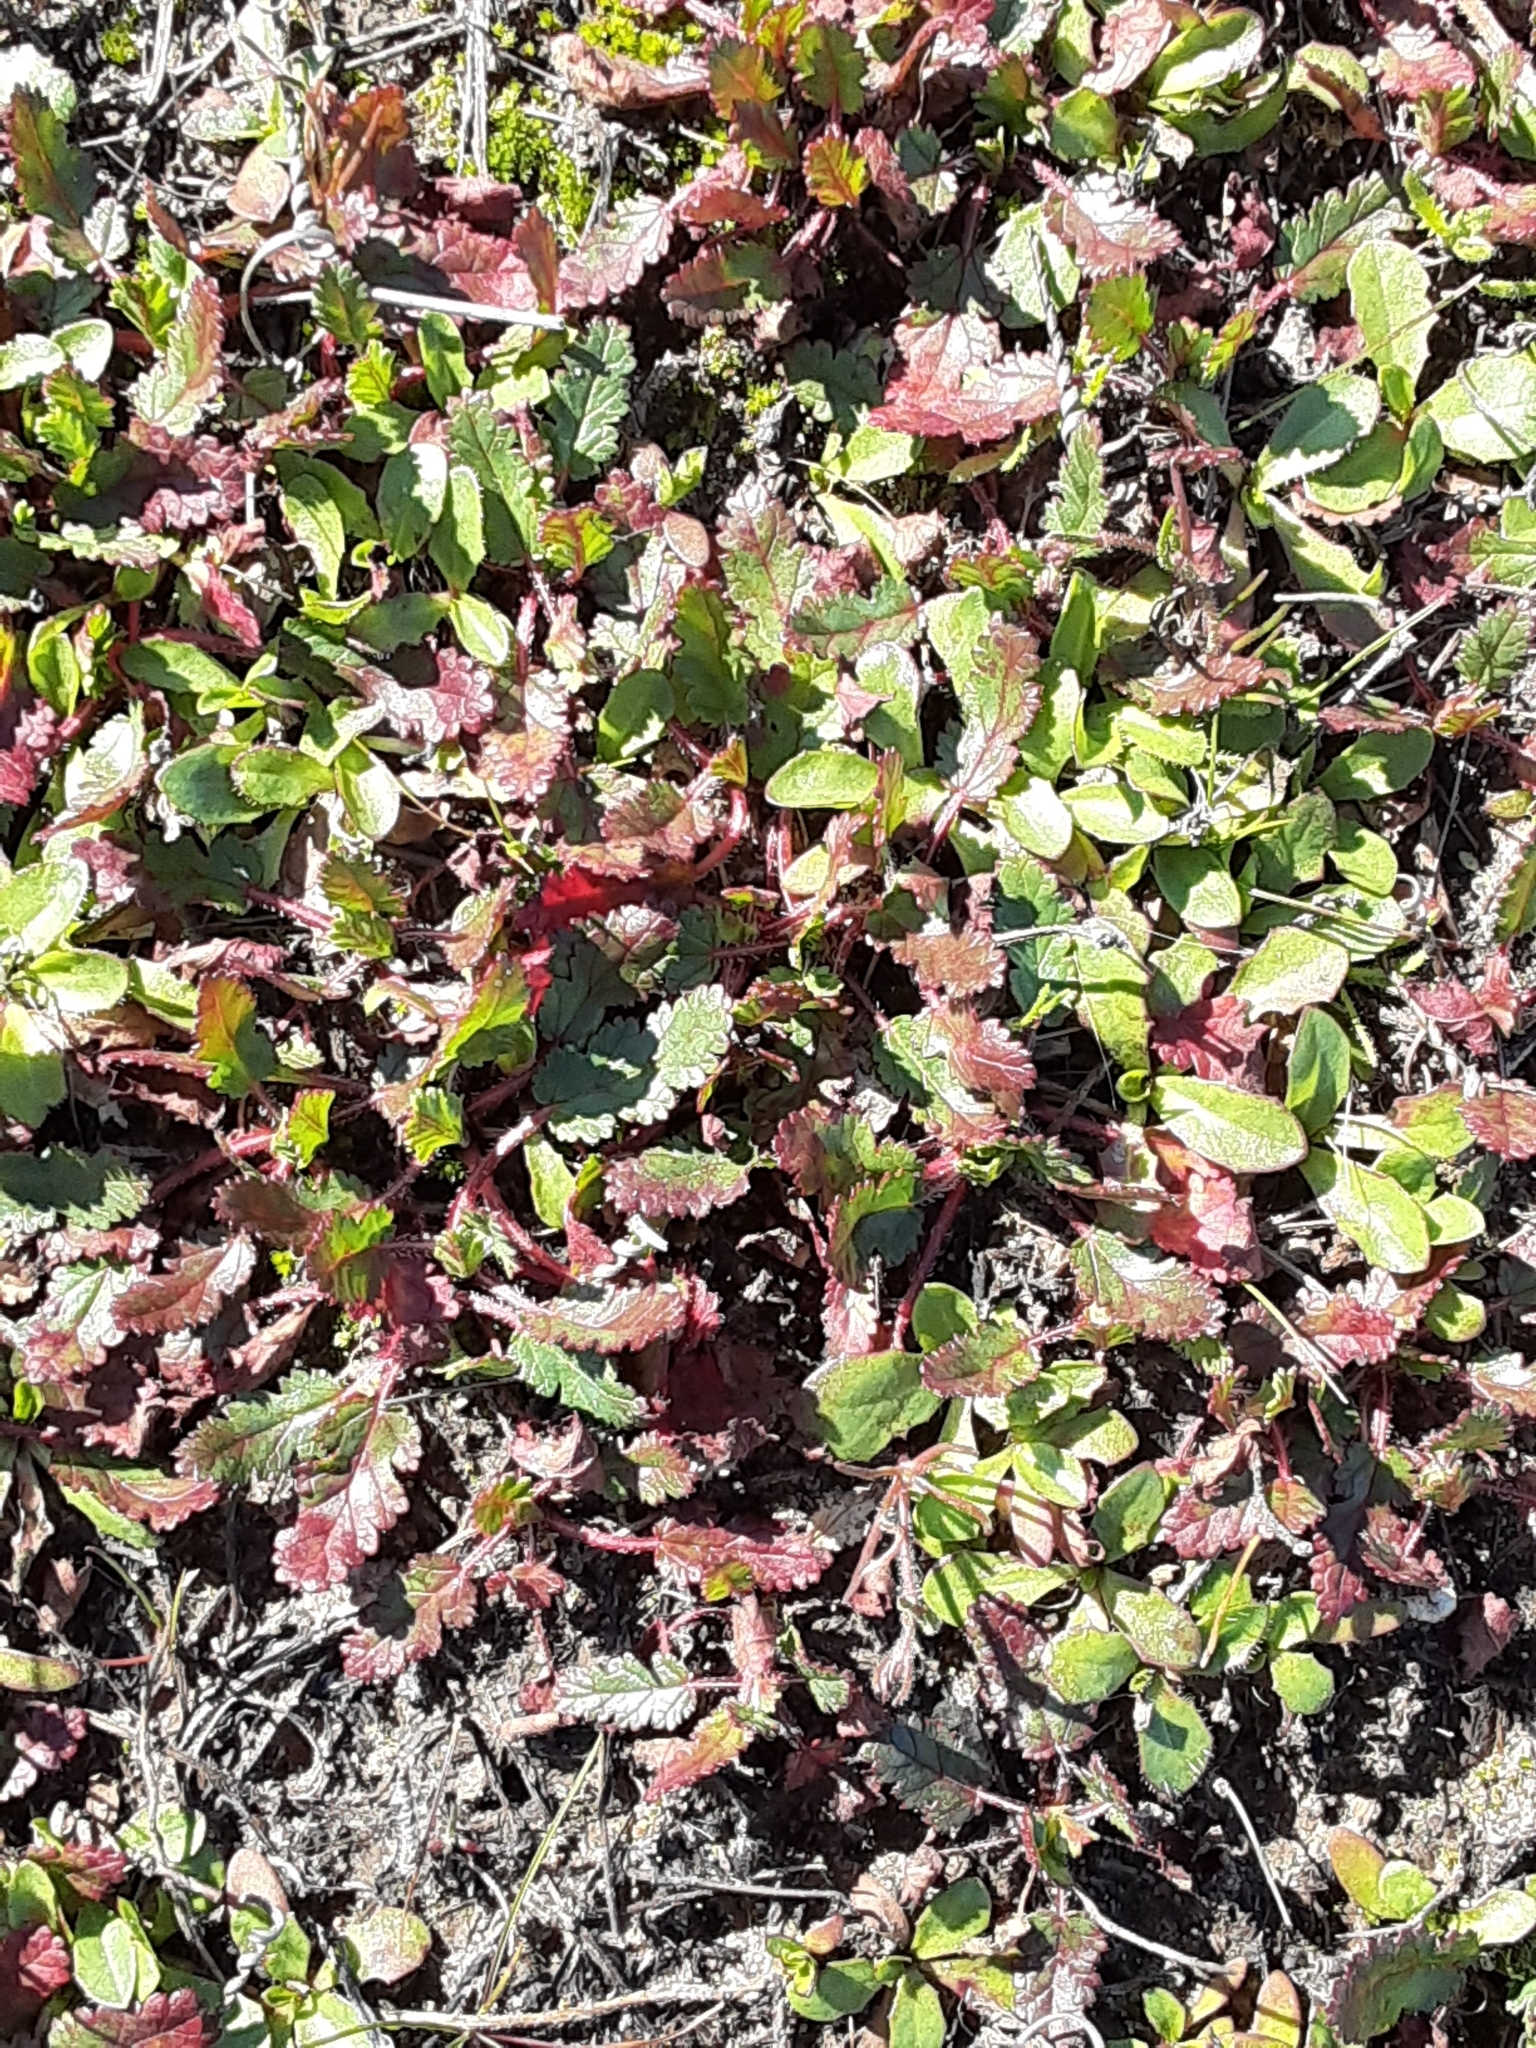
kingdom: Plantae
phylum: Tracheophyta
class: Magnoliopsida
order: Geraniales
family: Geraniaceae
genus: Erodium
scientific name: Erodium
